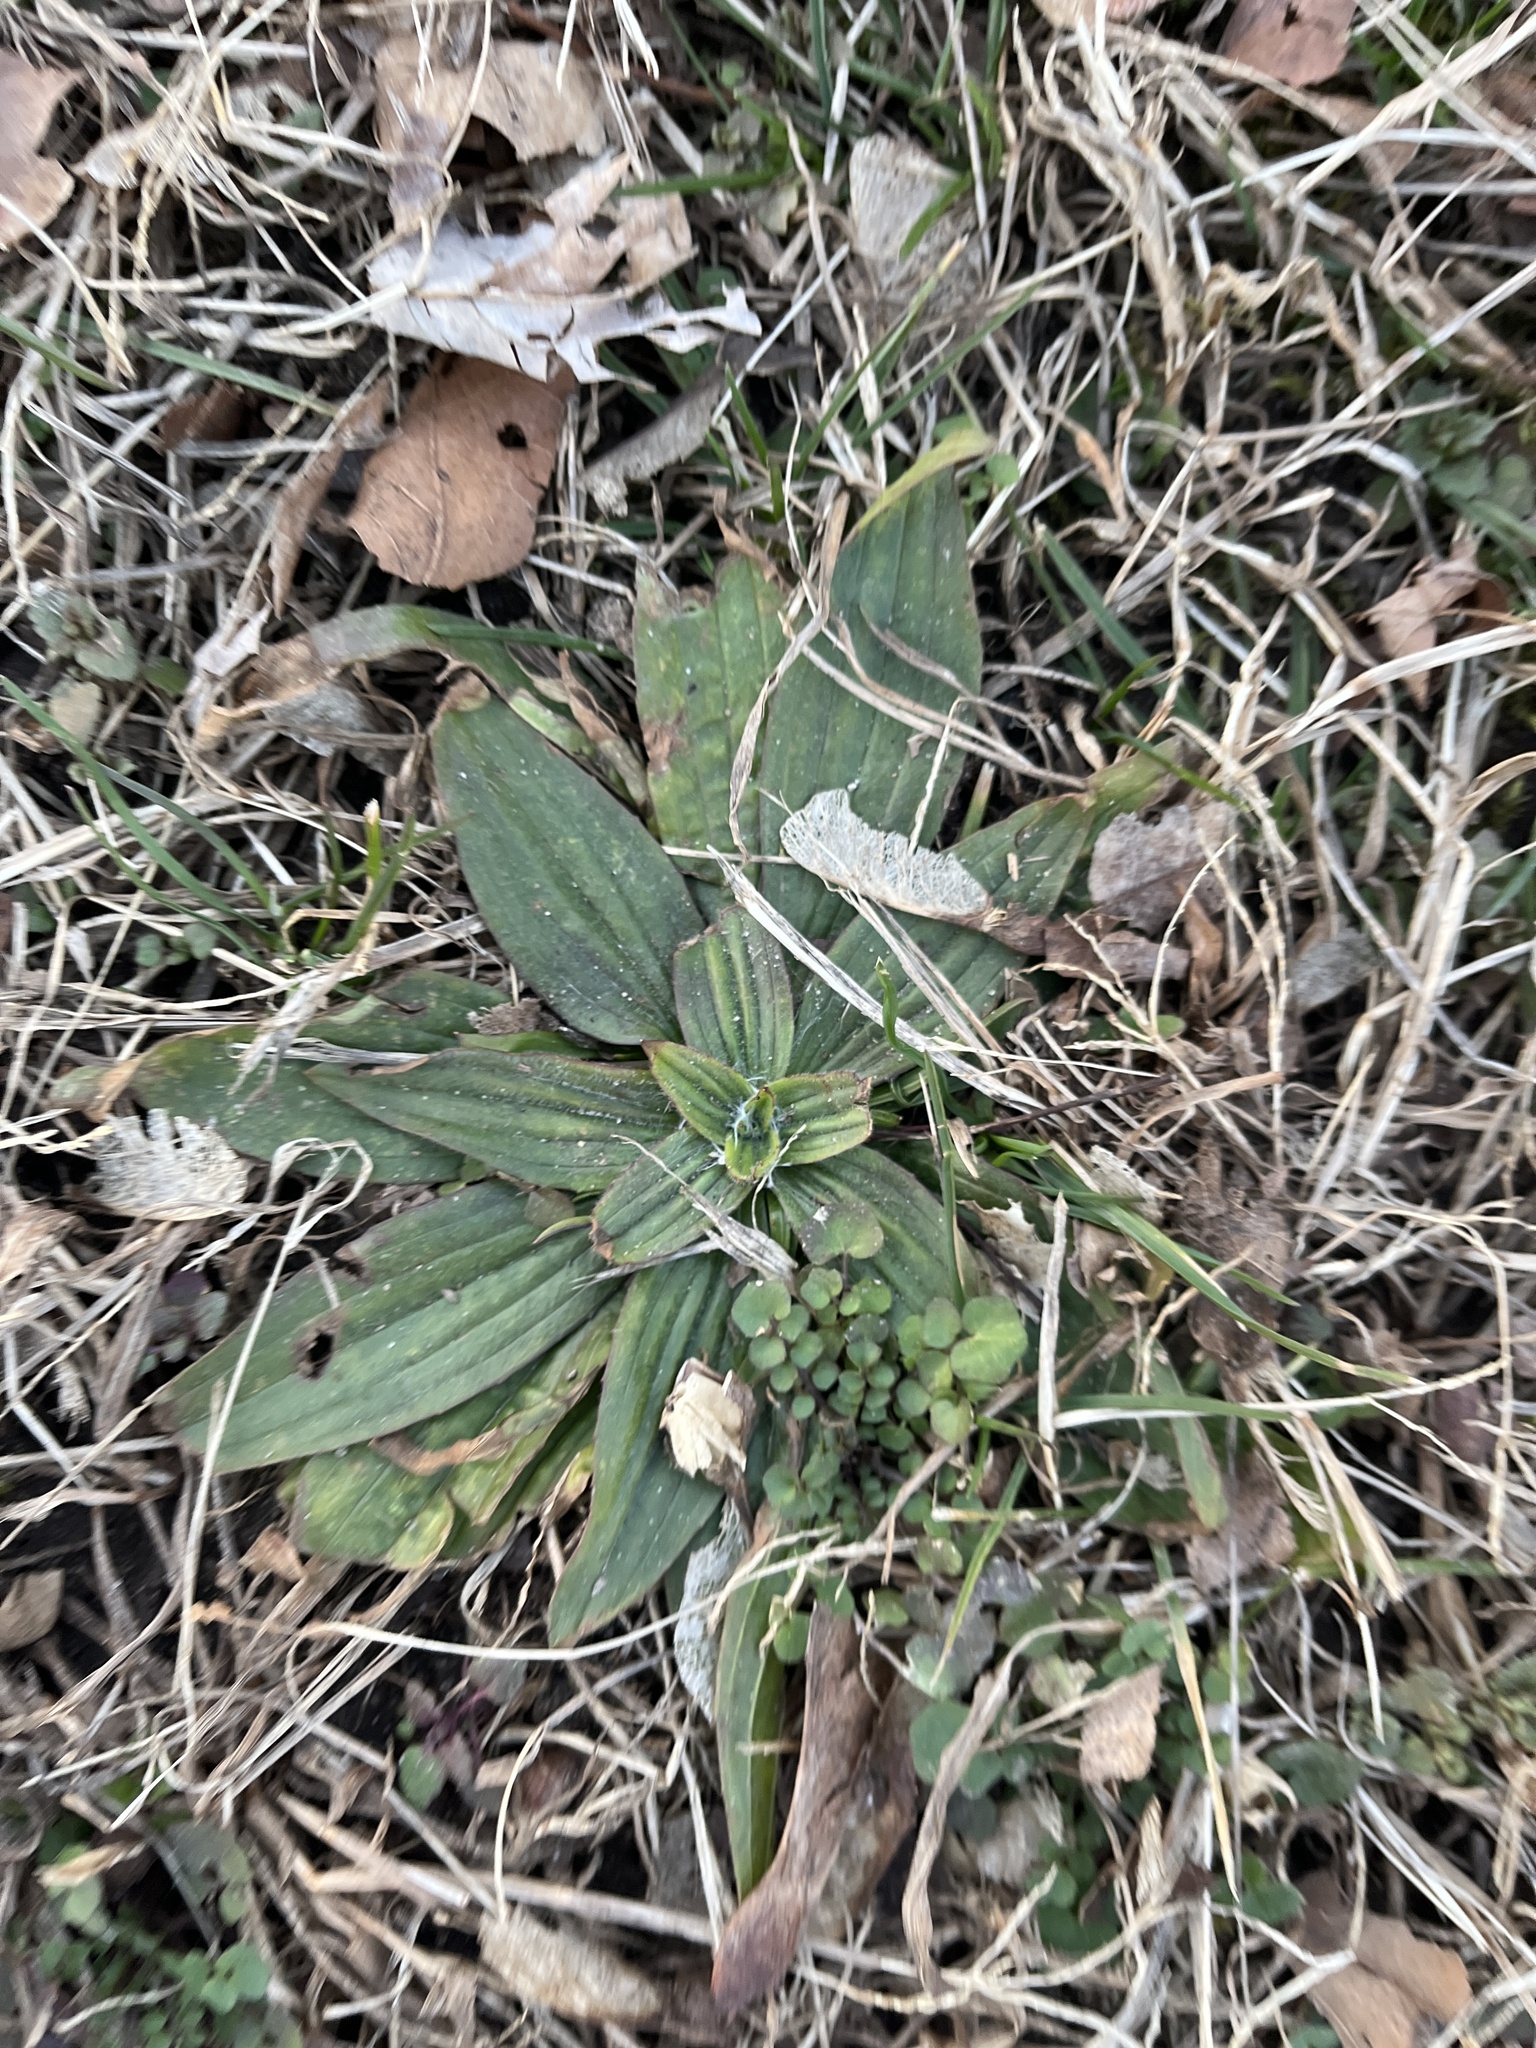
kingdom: Plantae
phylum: Tracheophyta
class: Magnoliopsida
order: Lamiales
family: Plantaginaceae
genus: Plantago
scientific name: Plantago lanceolata
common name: Ribwort plantain
